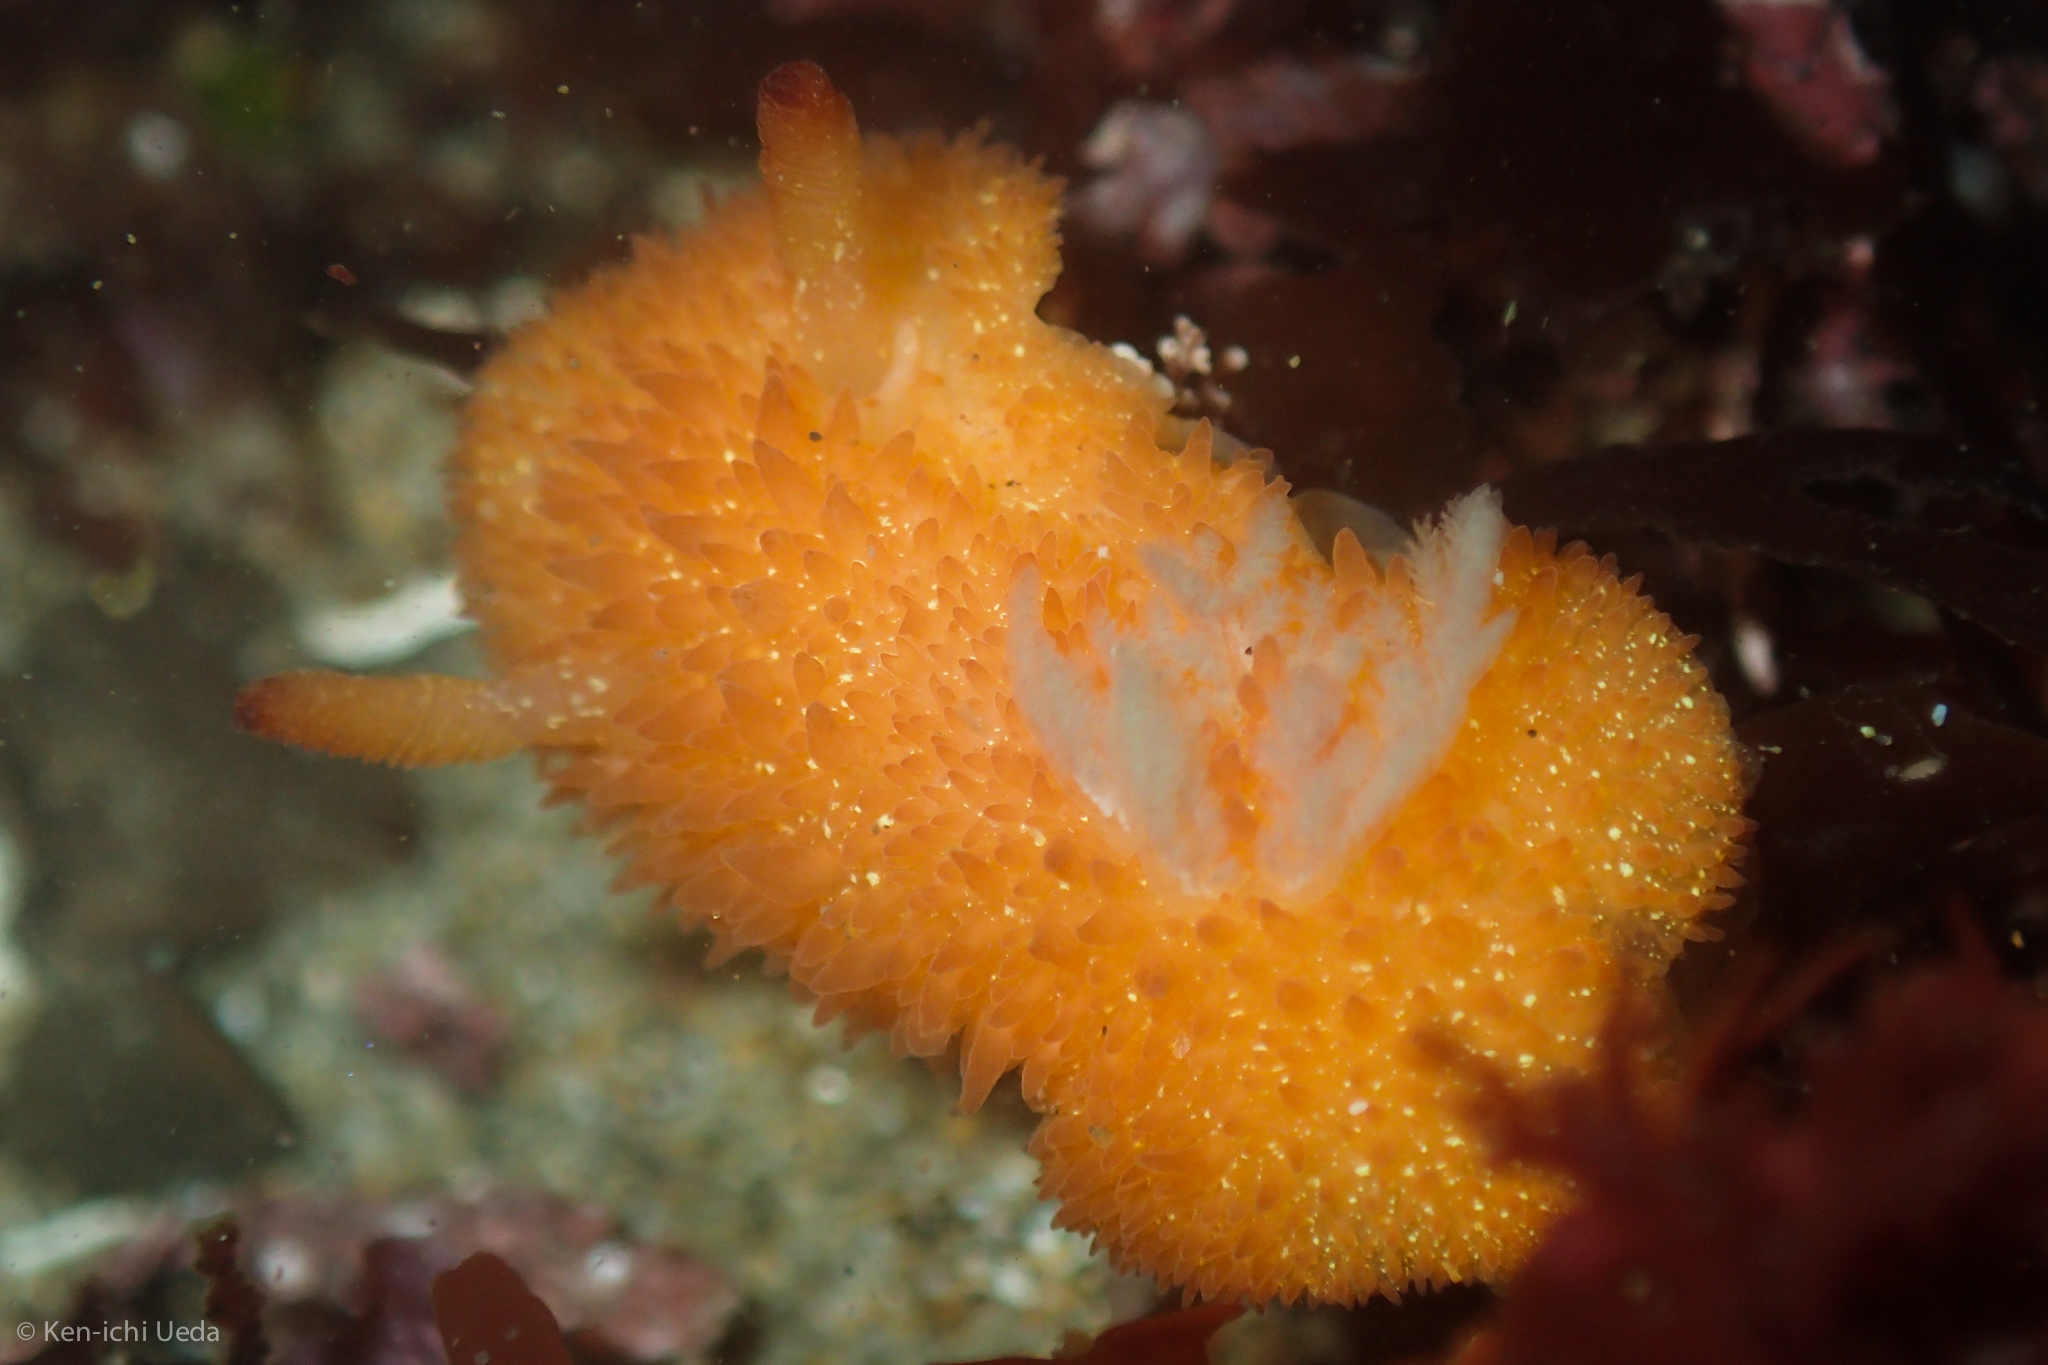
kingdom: Animalia
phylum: Mollusca
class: Gastropoda
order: Nudibranchia
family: Onchidorididae
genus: Acanthodoris
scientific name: Acanthodoris lutea
